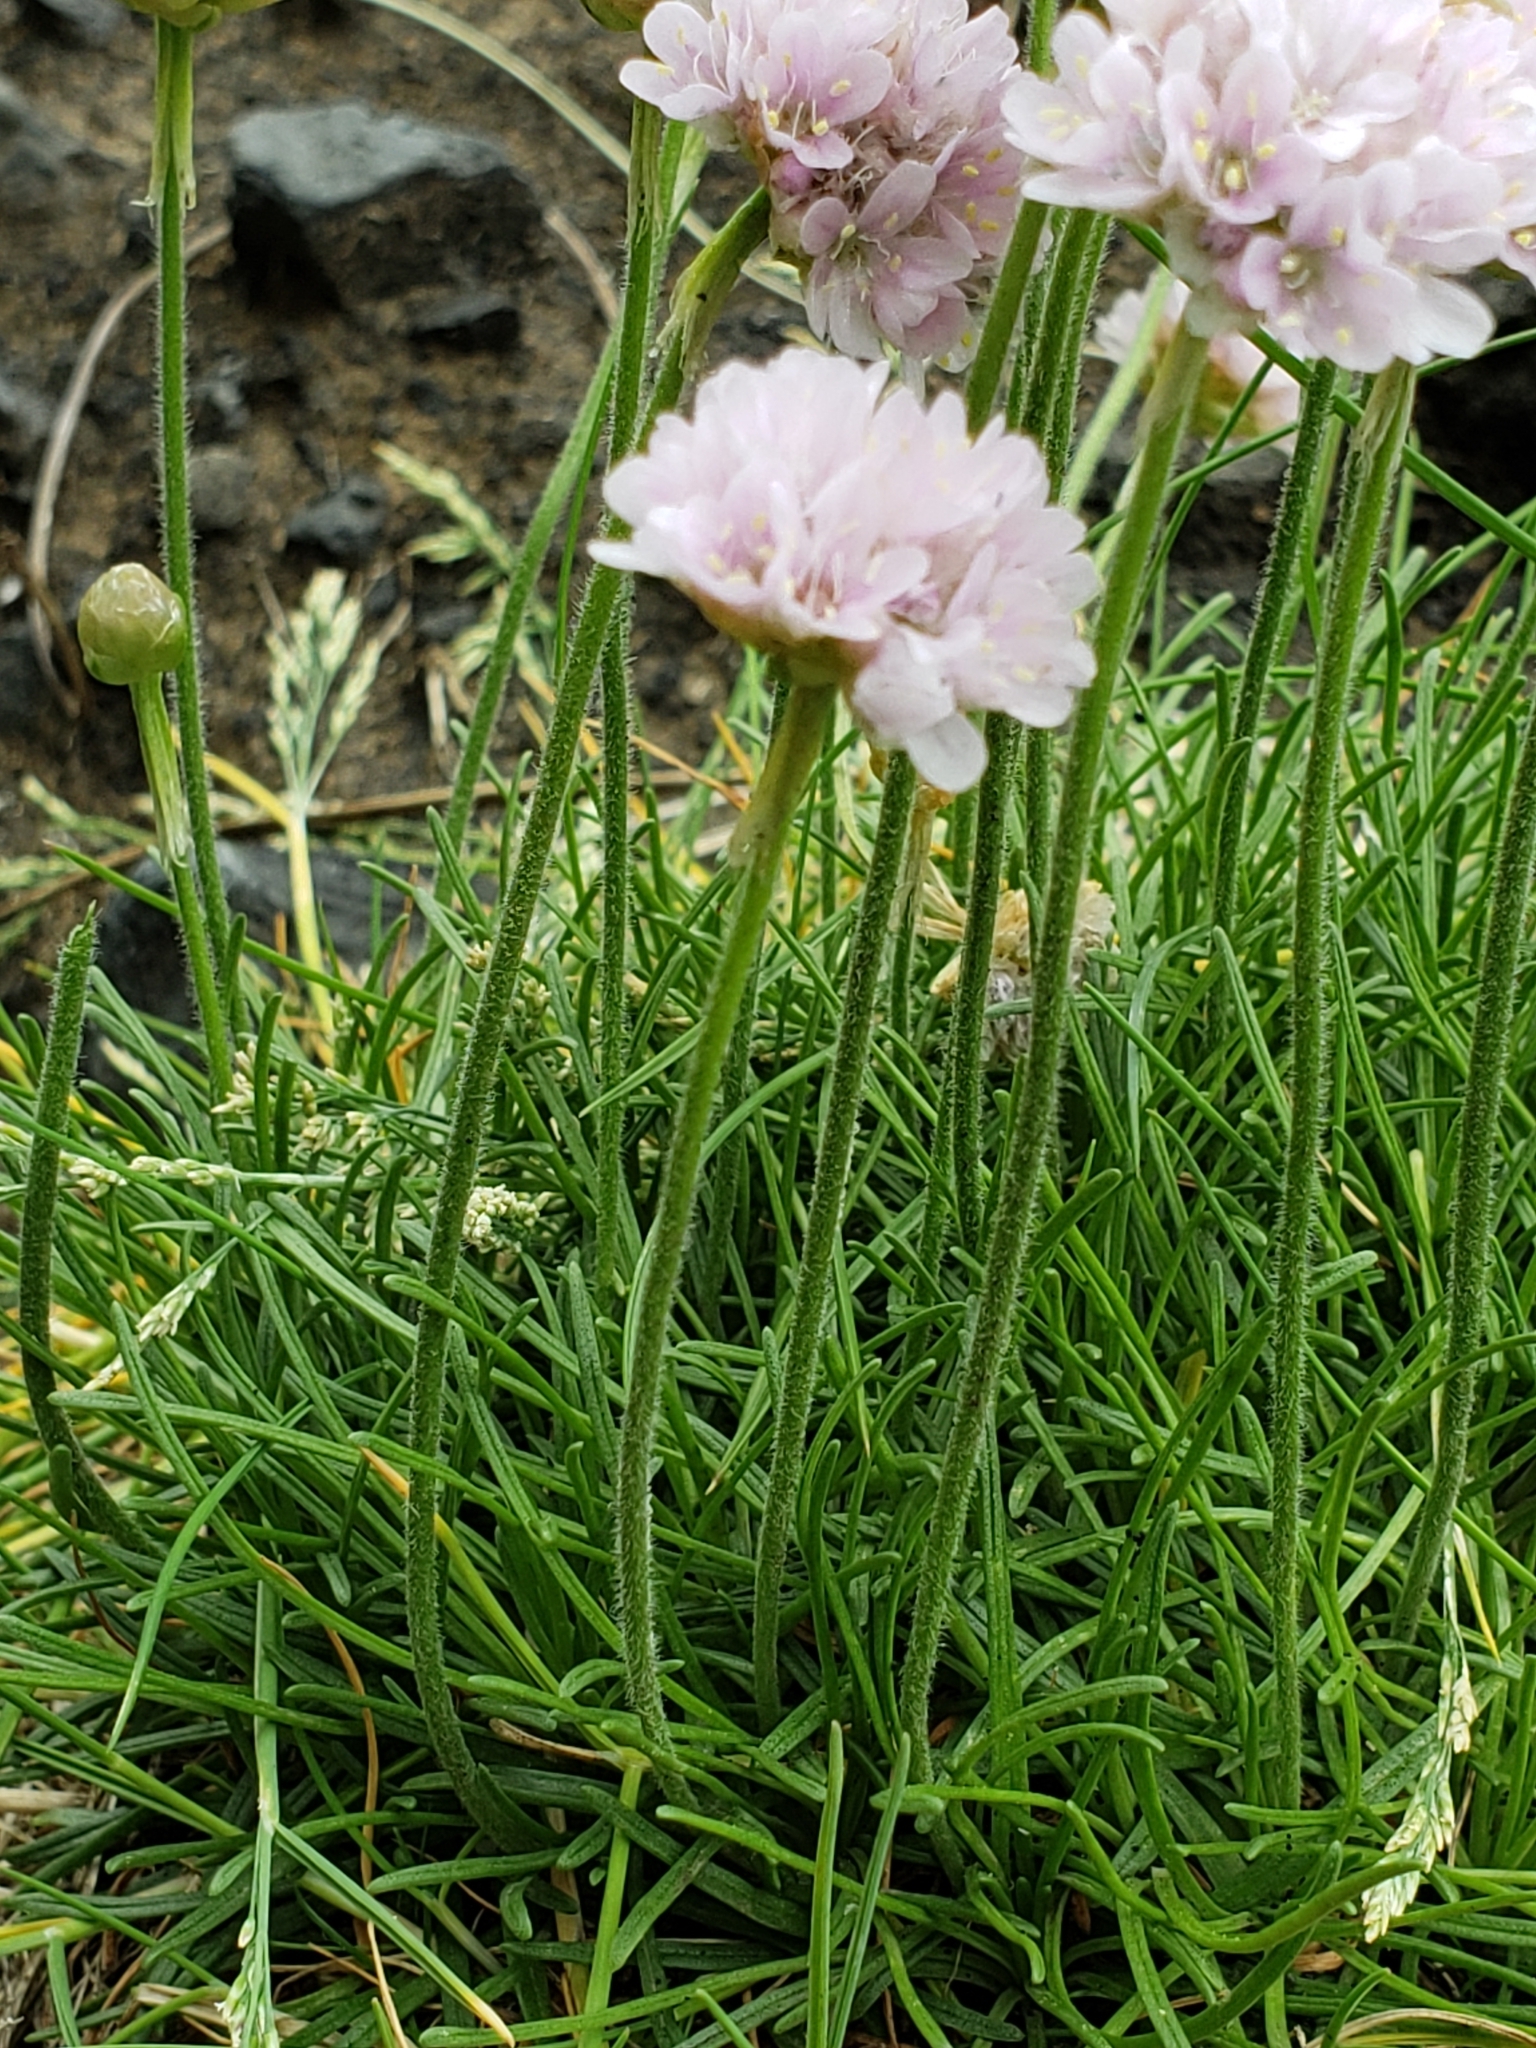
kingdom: Plantae
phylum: Tracheophyta
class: Magnoliopsida
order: Caryophyllales
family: Plumbaginaceae
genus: Armeria
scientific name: Armeria maritima
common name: Thrift
